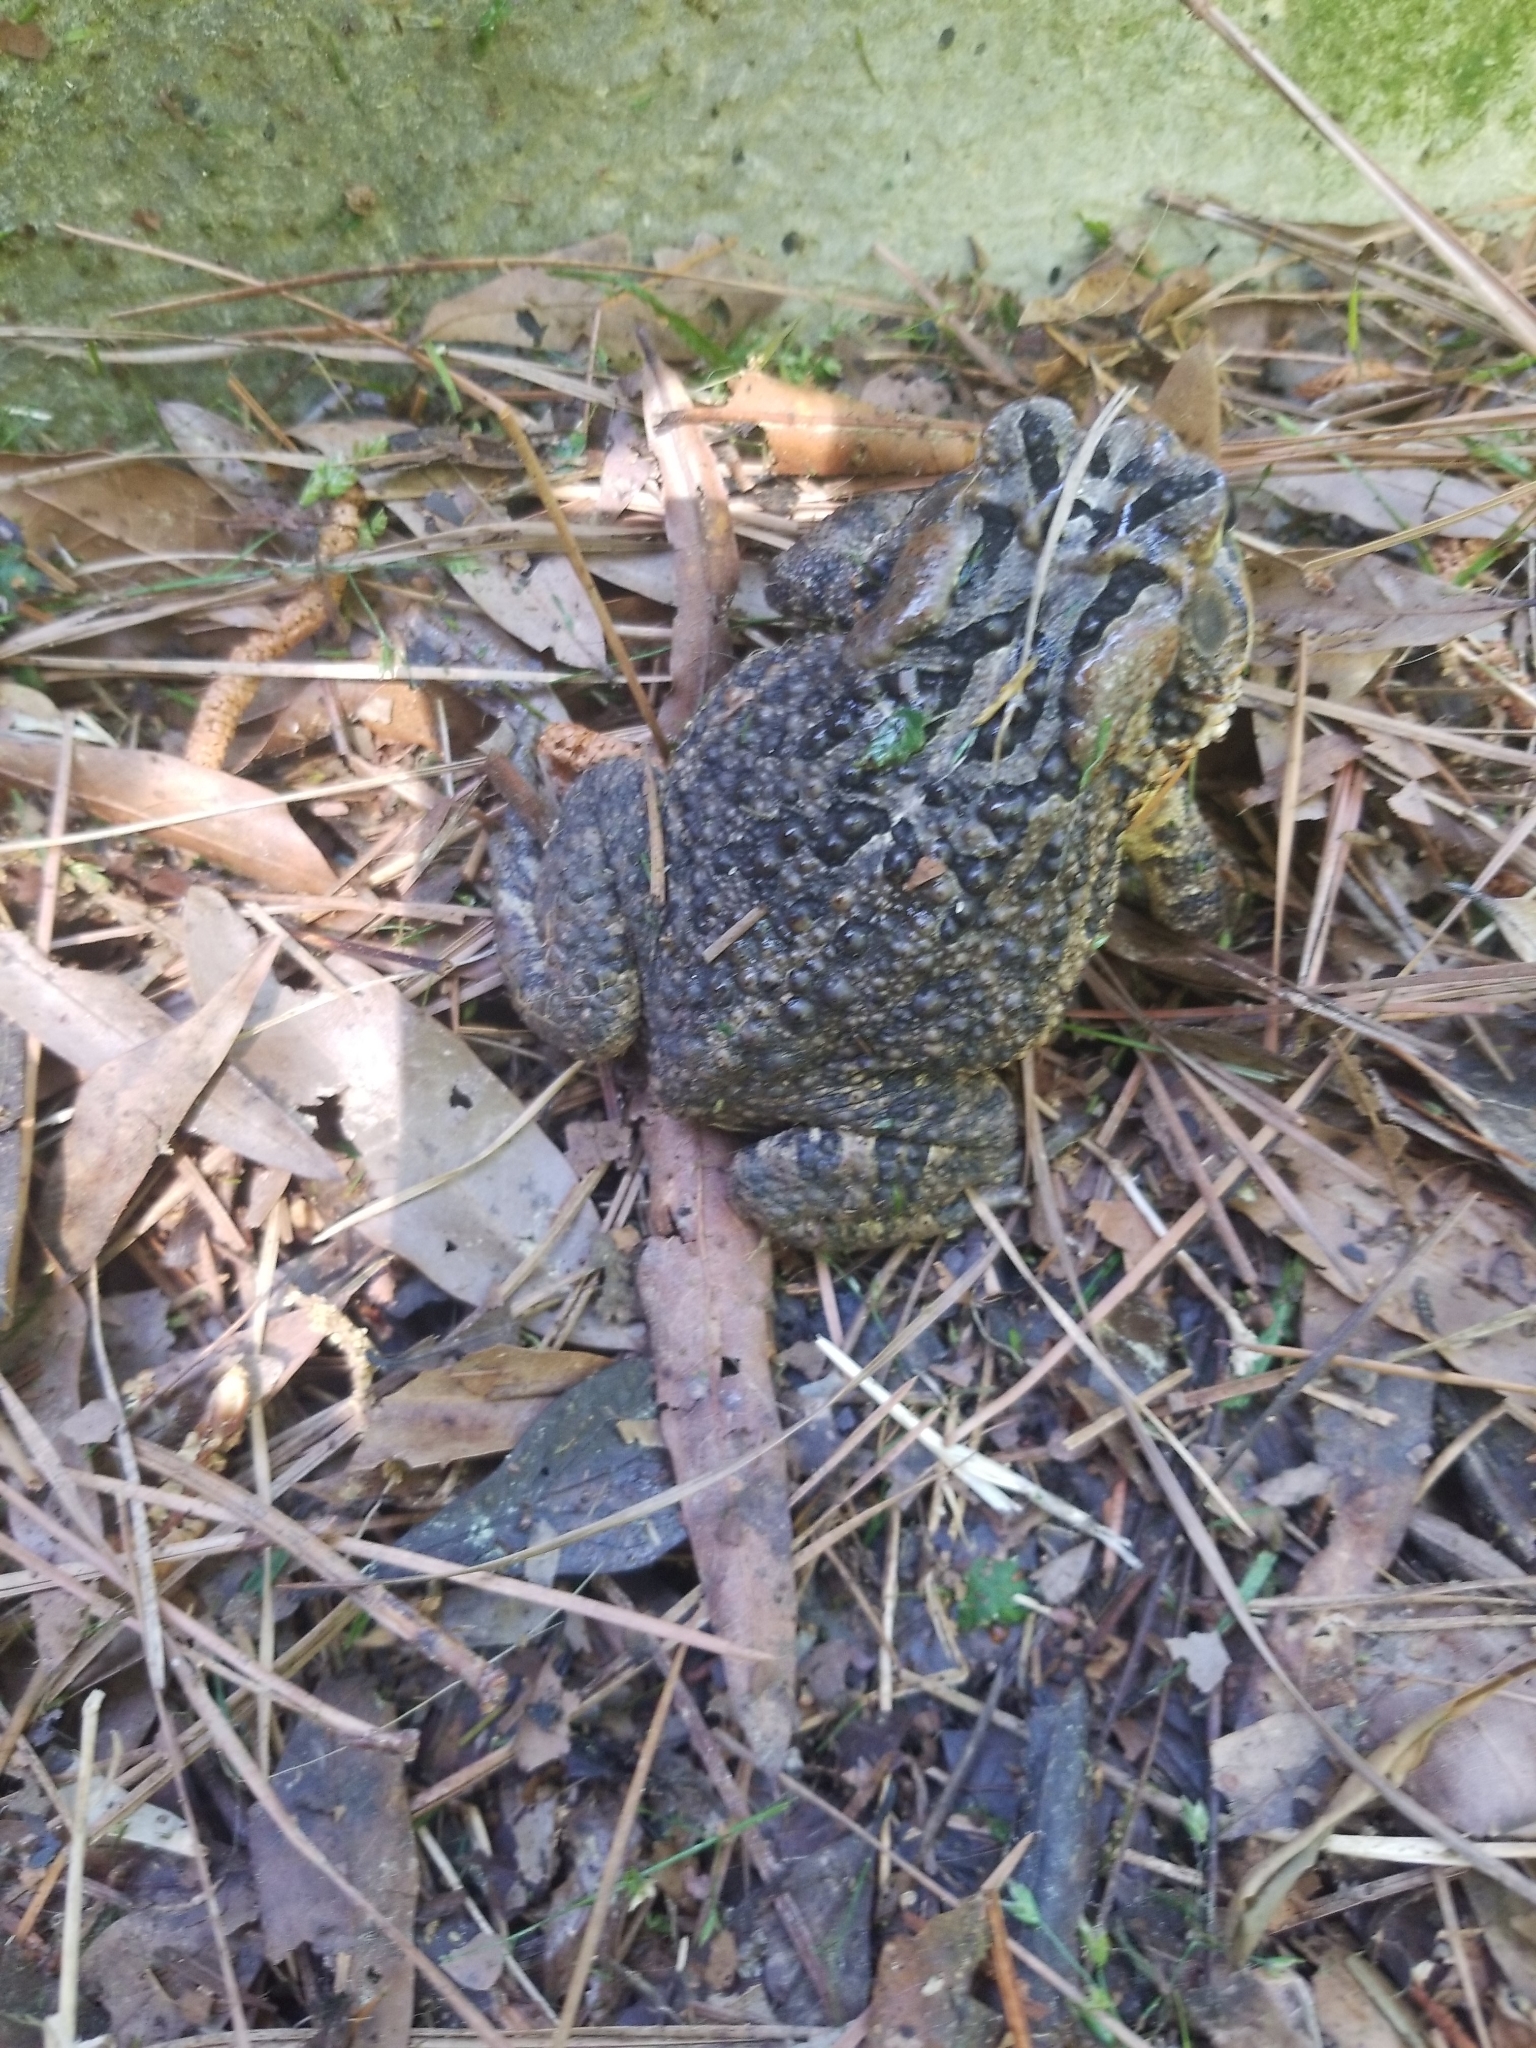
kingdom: Animalia
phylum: Chordata
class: Amphibia
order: Anura
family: Bufonidae
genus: Anaxyrus
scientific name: Anaxyrus terrestris
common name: Southern toad
